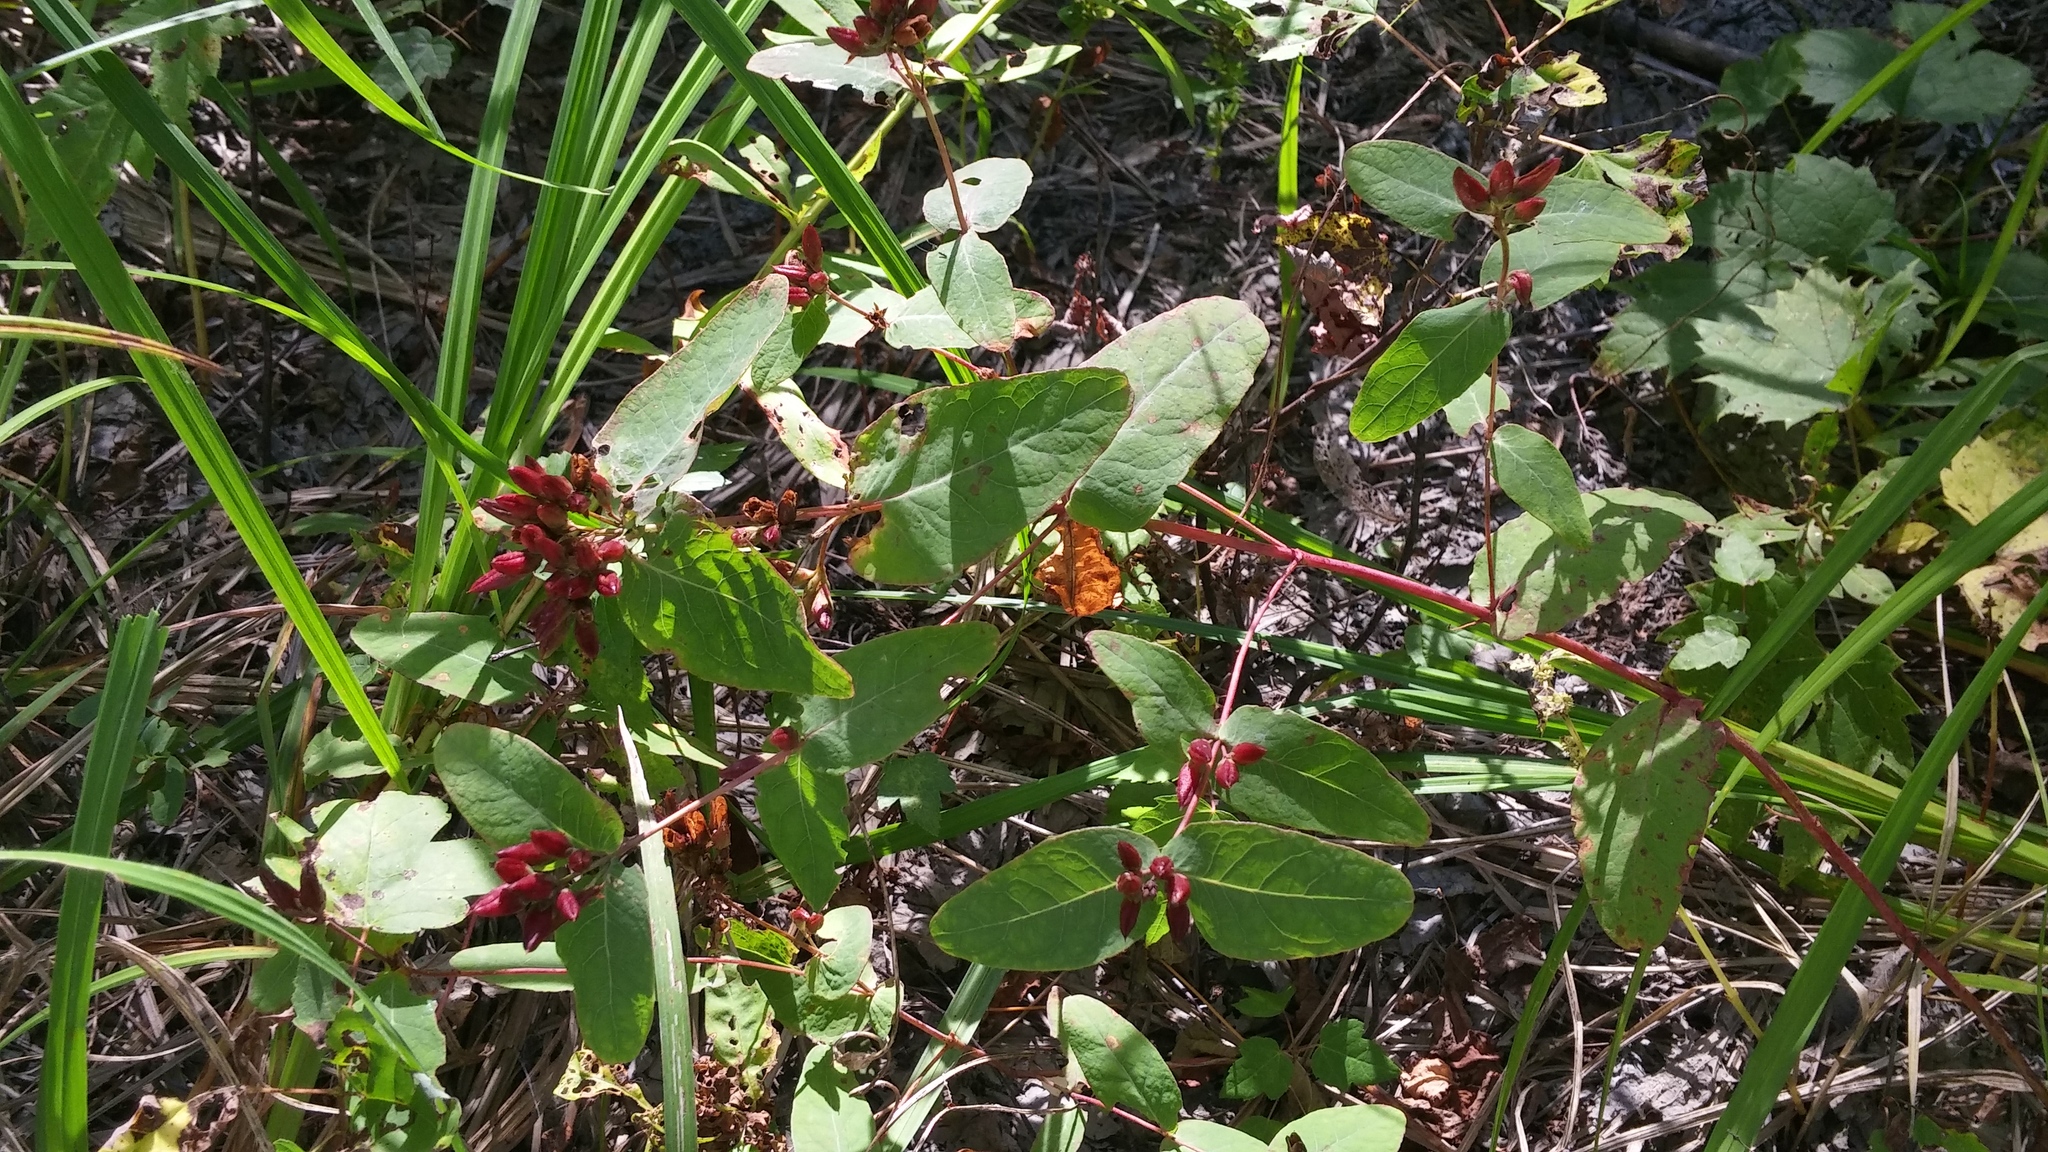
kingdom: Plantae
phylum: Tracheophyta
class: Magnoliopsida
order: Malpighiales
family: Hypericaceae
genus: Triadenum
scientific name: Triadenum fraseri
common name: Fraser's marsh st. johnswort
